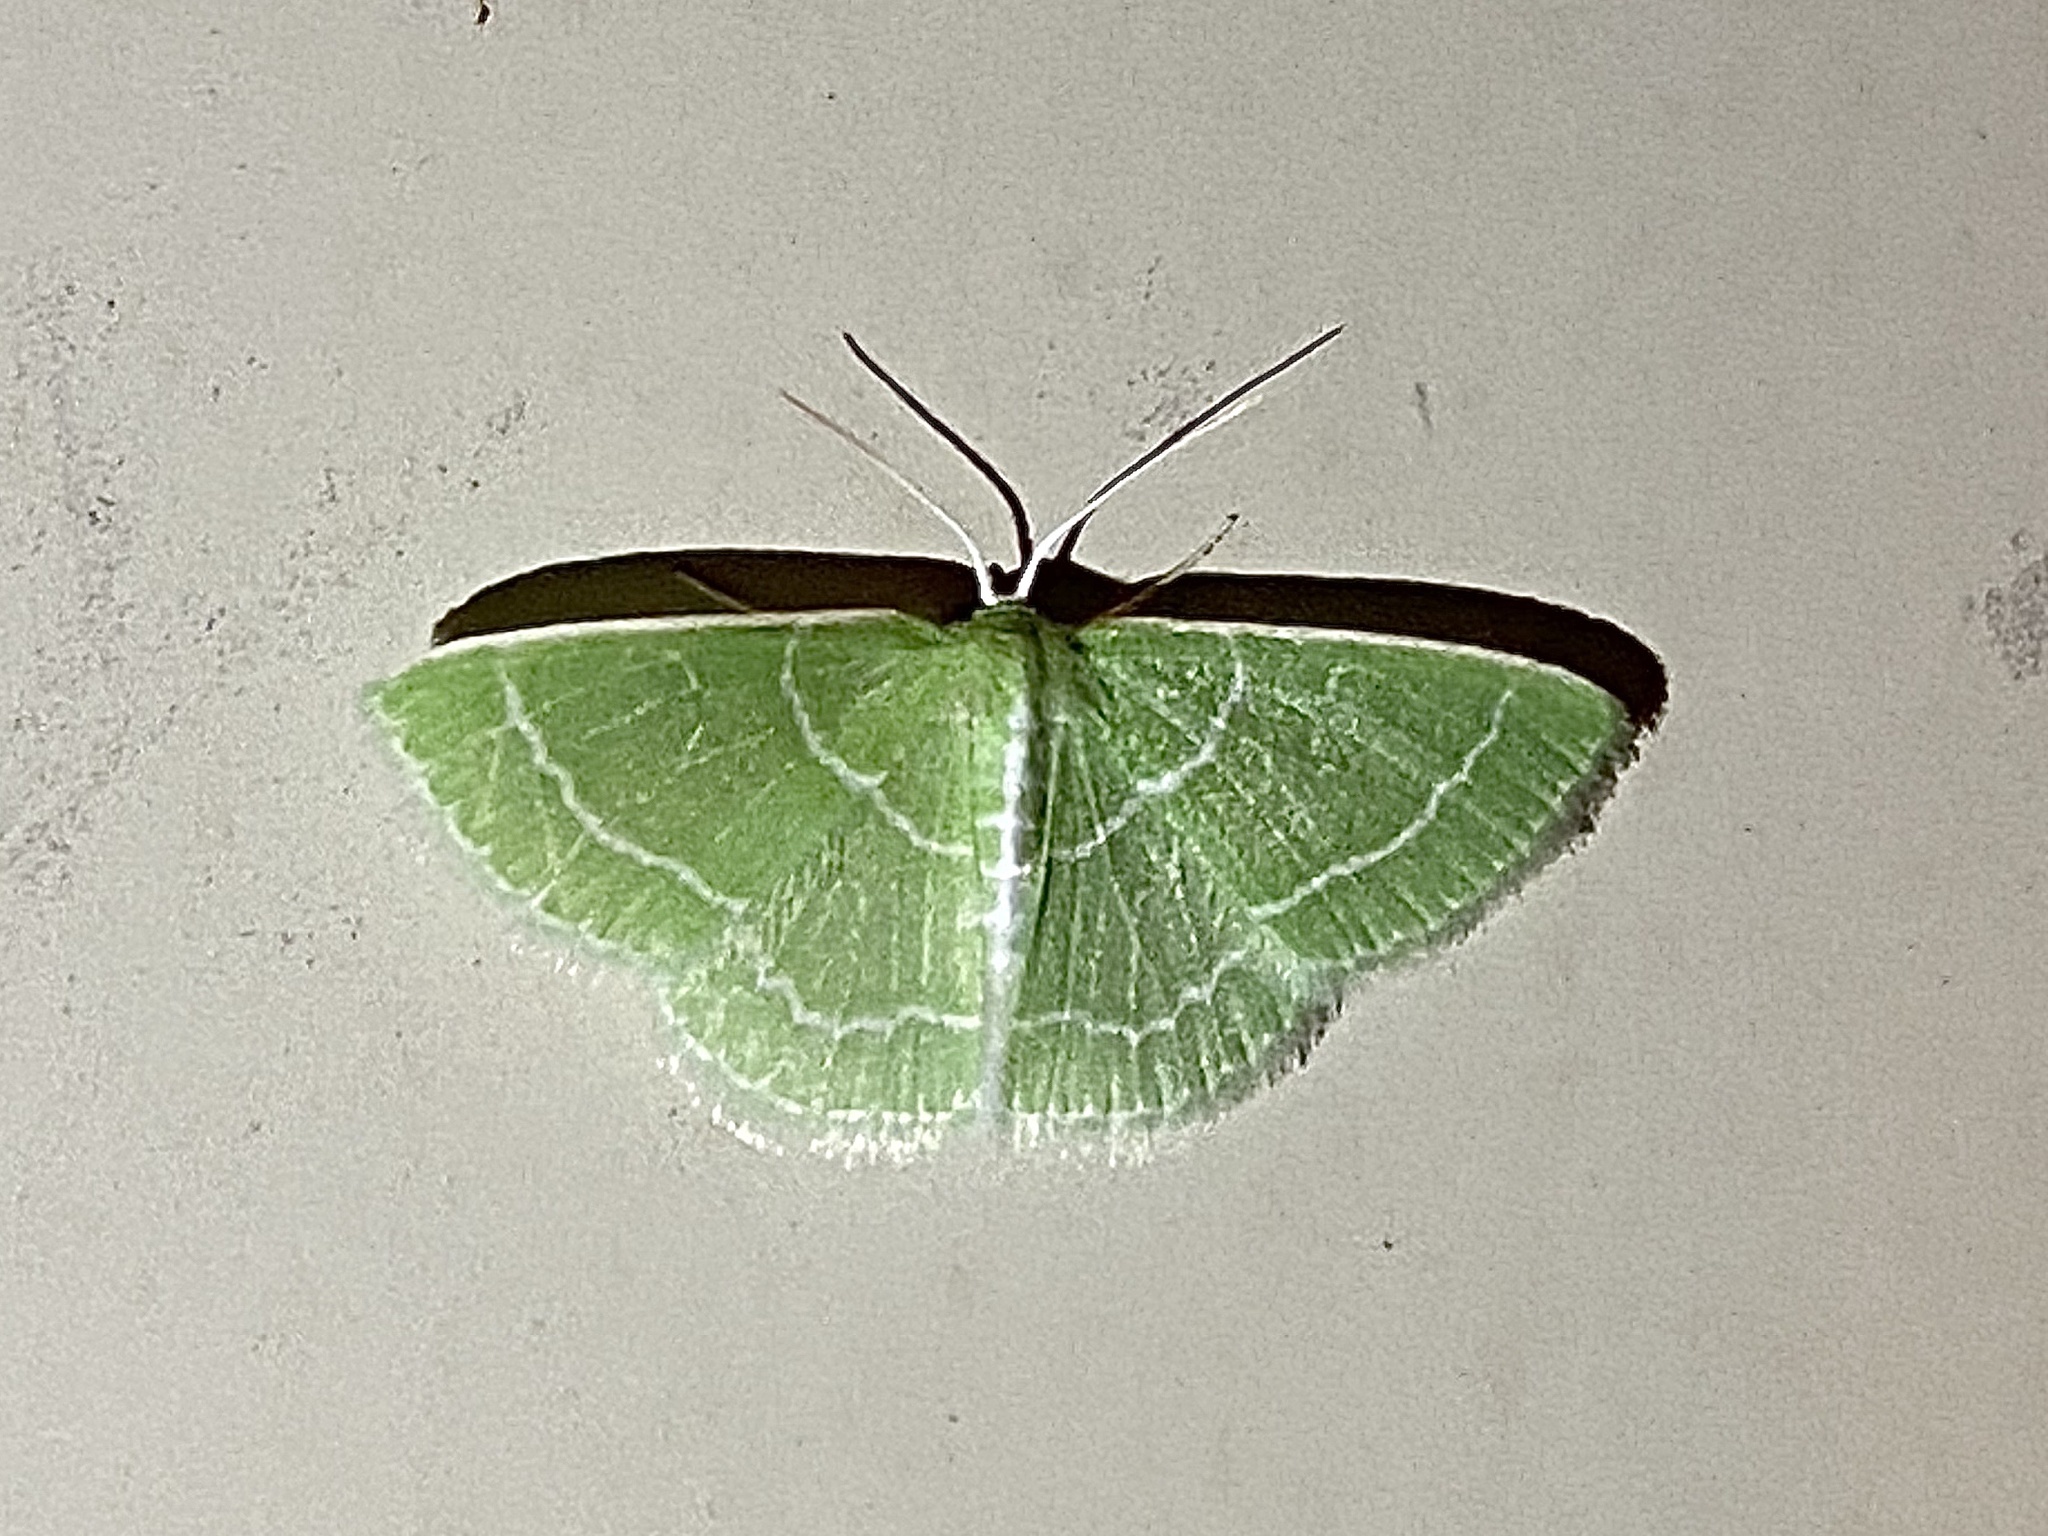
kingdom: Animalia
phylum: Arthropoda
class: Insecta
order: Lepidoptera
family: Geometridae
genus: Synchlora
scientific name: Synchlora aerata
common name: Wavy-lined emerald
